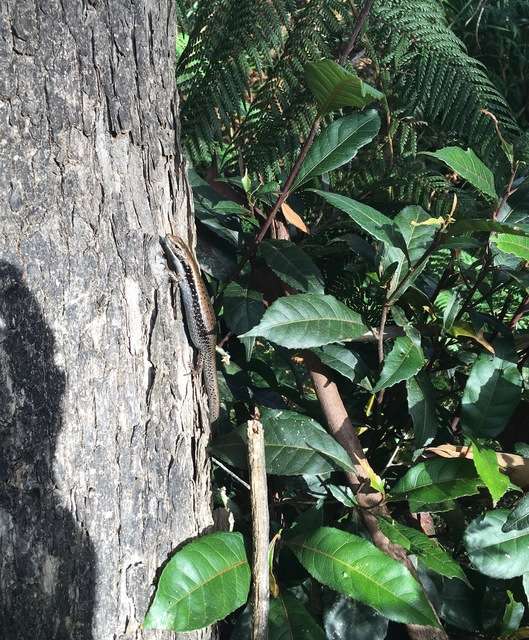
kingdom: Animalia
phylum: Chordata
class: Squamata
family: Scincidae
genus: Eulamprus
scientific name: Eulamprus tympanum
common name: Cool-temperate water-skink
